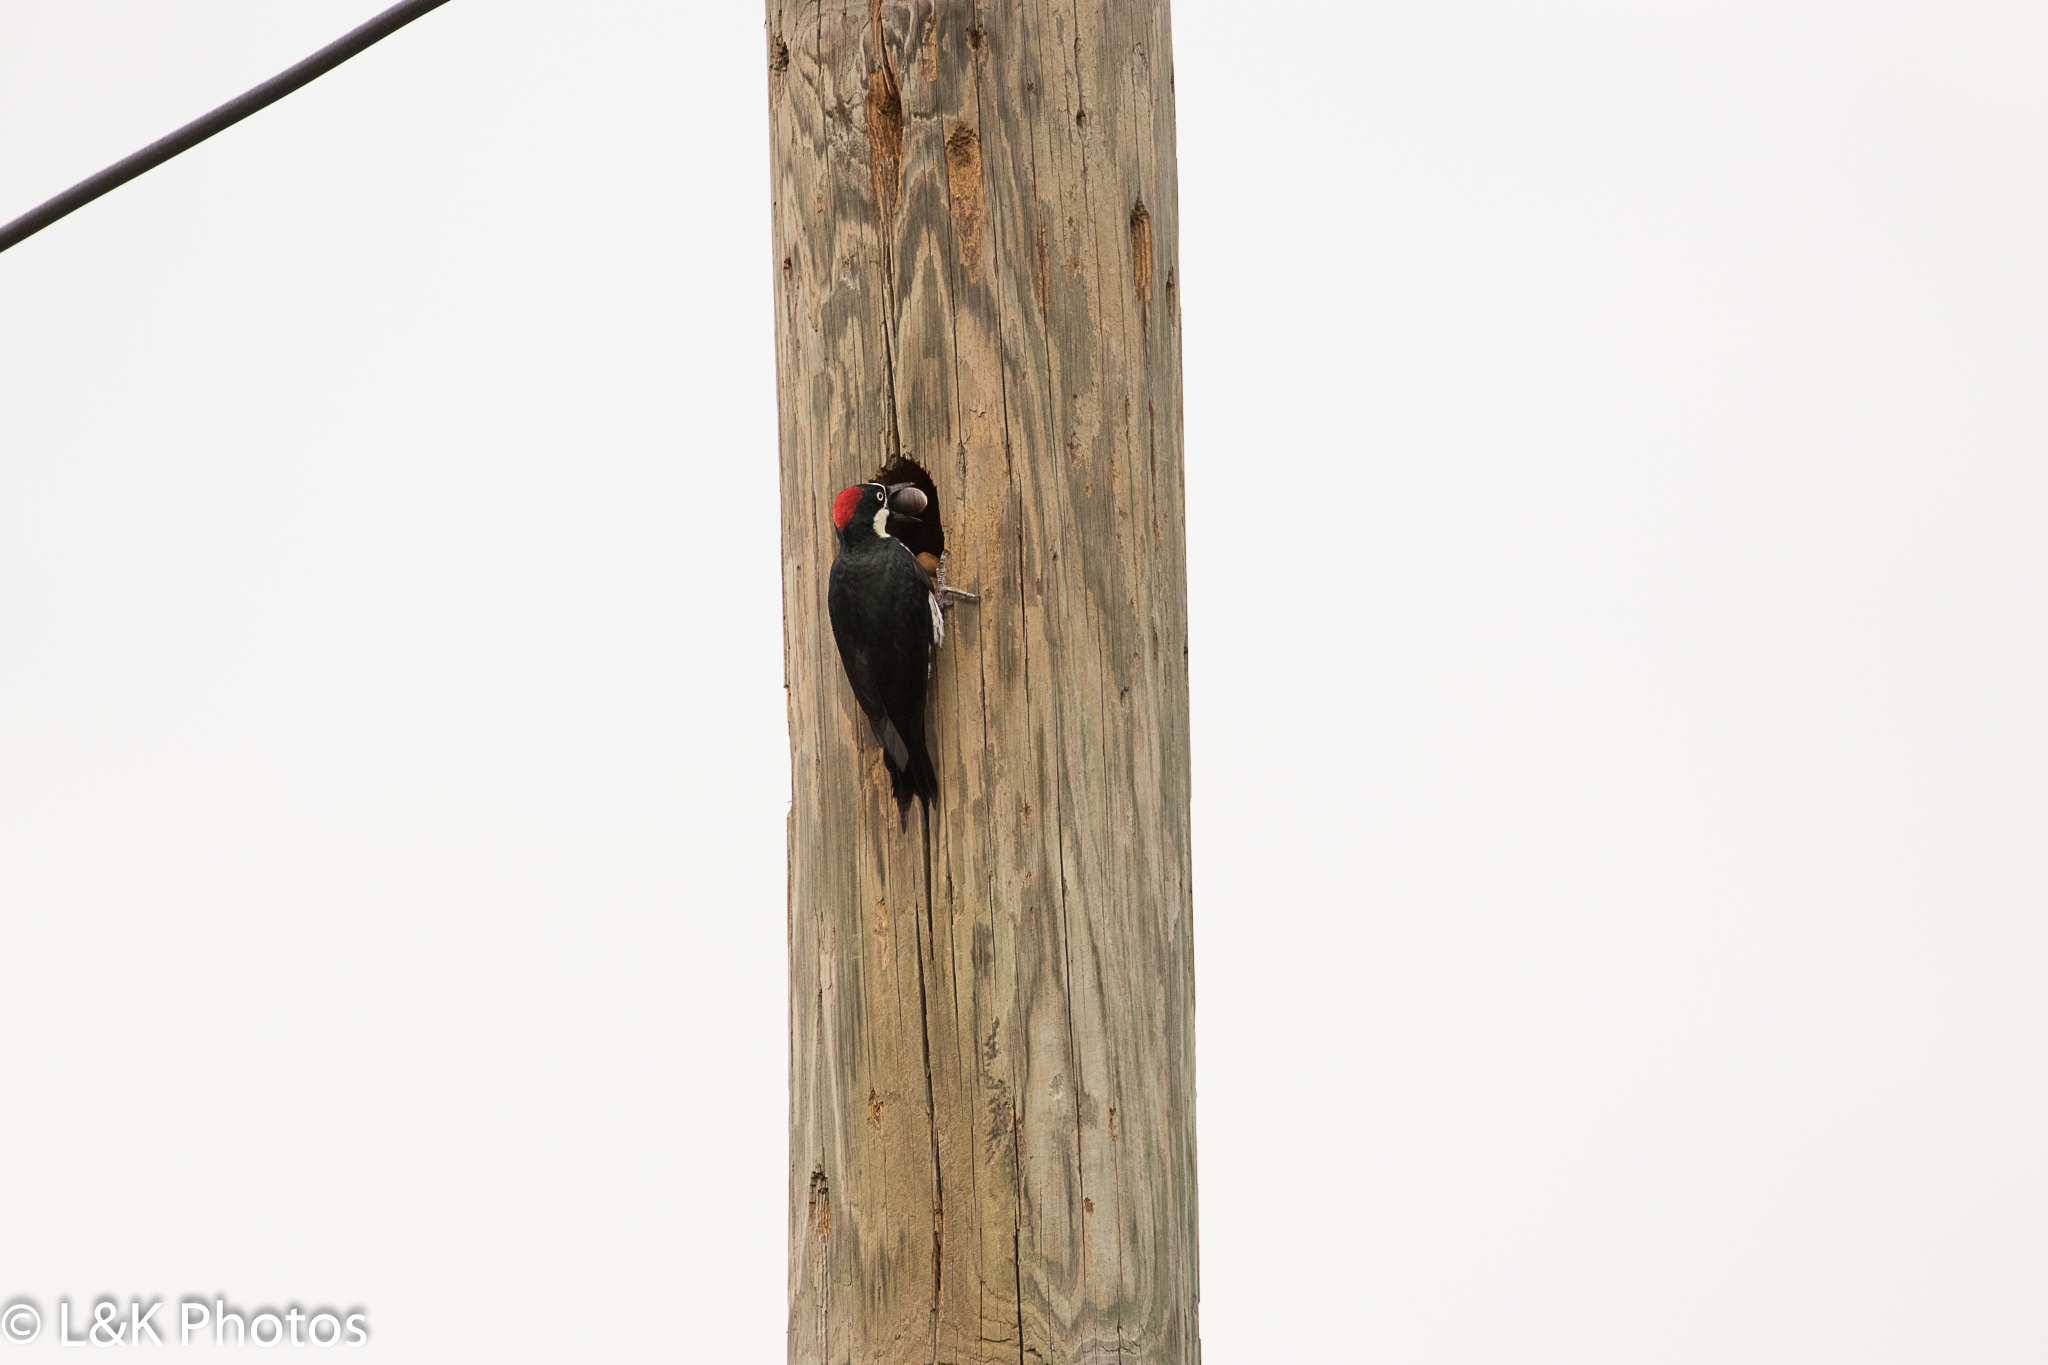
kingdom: Animalia
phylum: Chordata
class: Aves
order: Piciformes
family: Picidae
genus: Melanerpes
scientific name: Melanerpes formicivorus
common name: Acorn woodpecker
